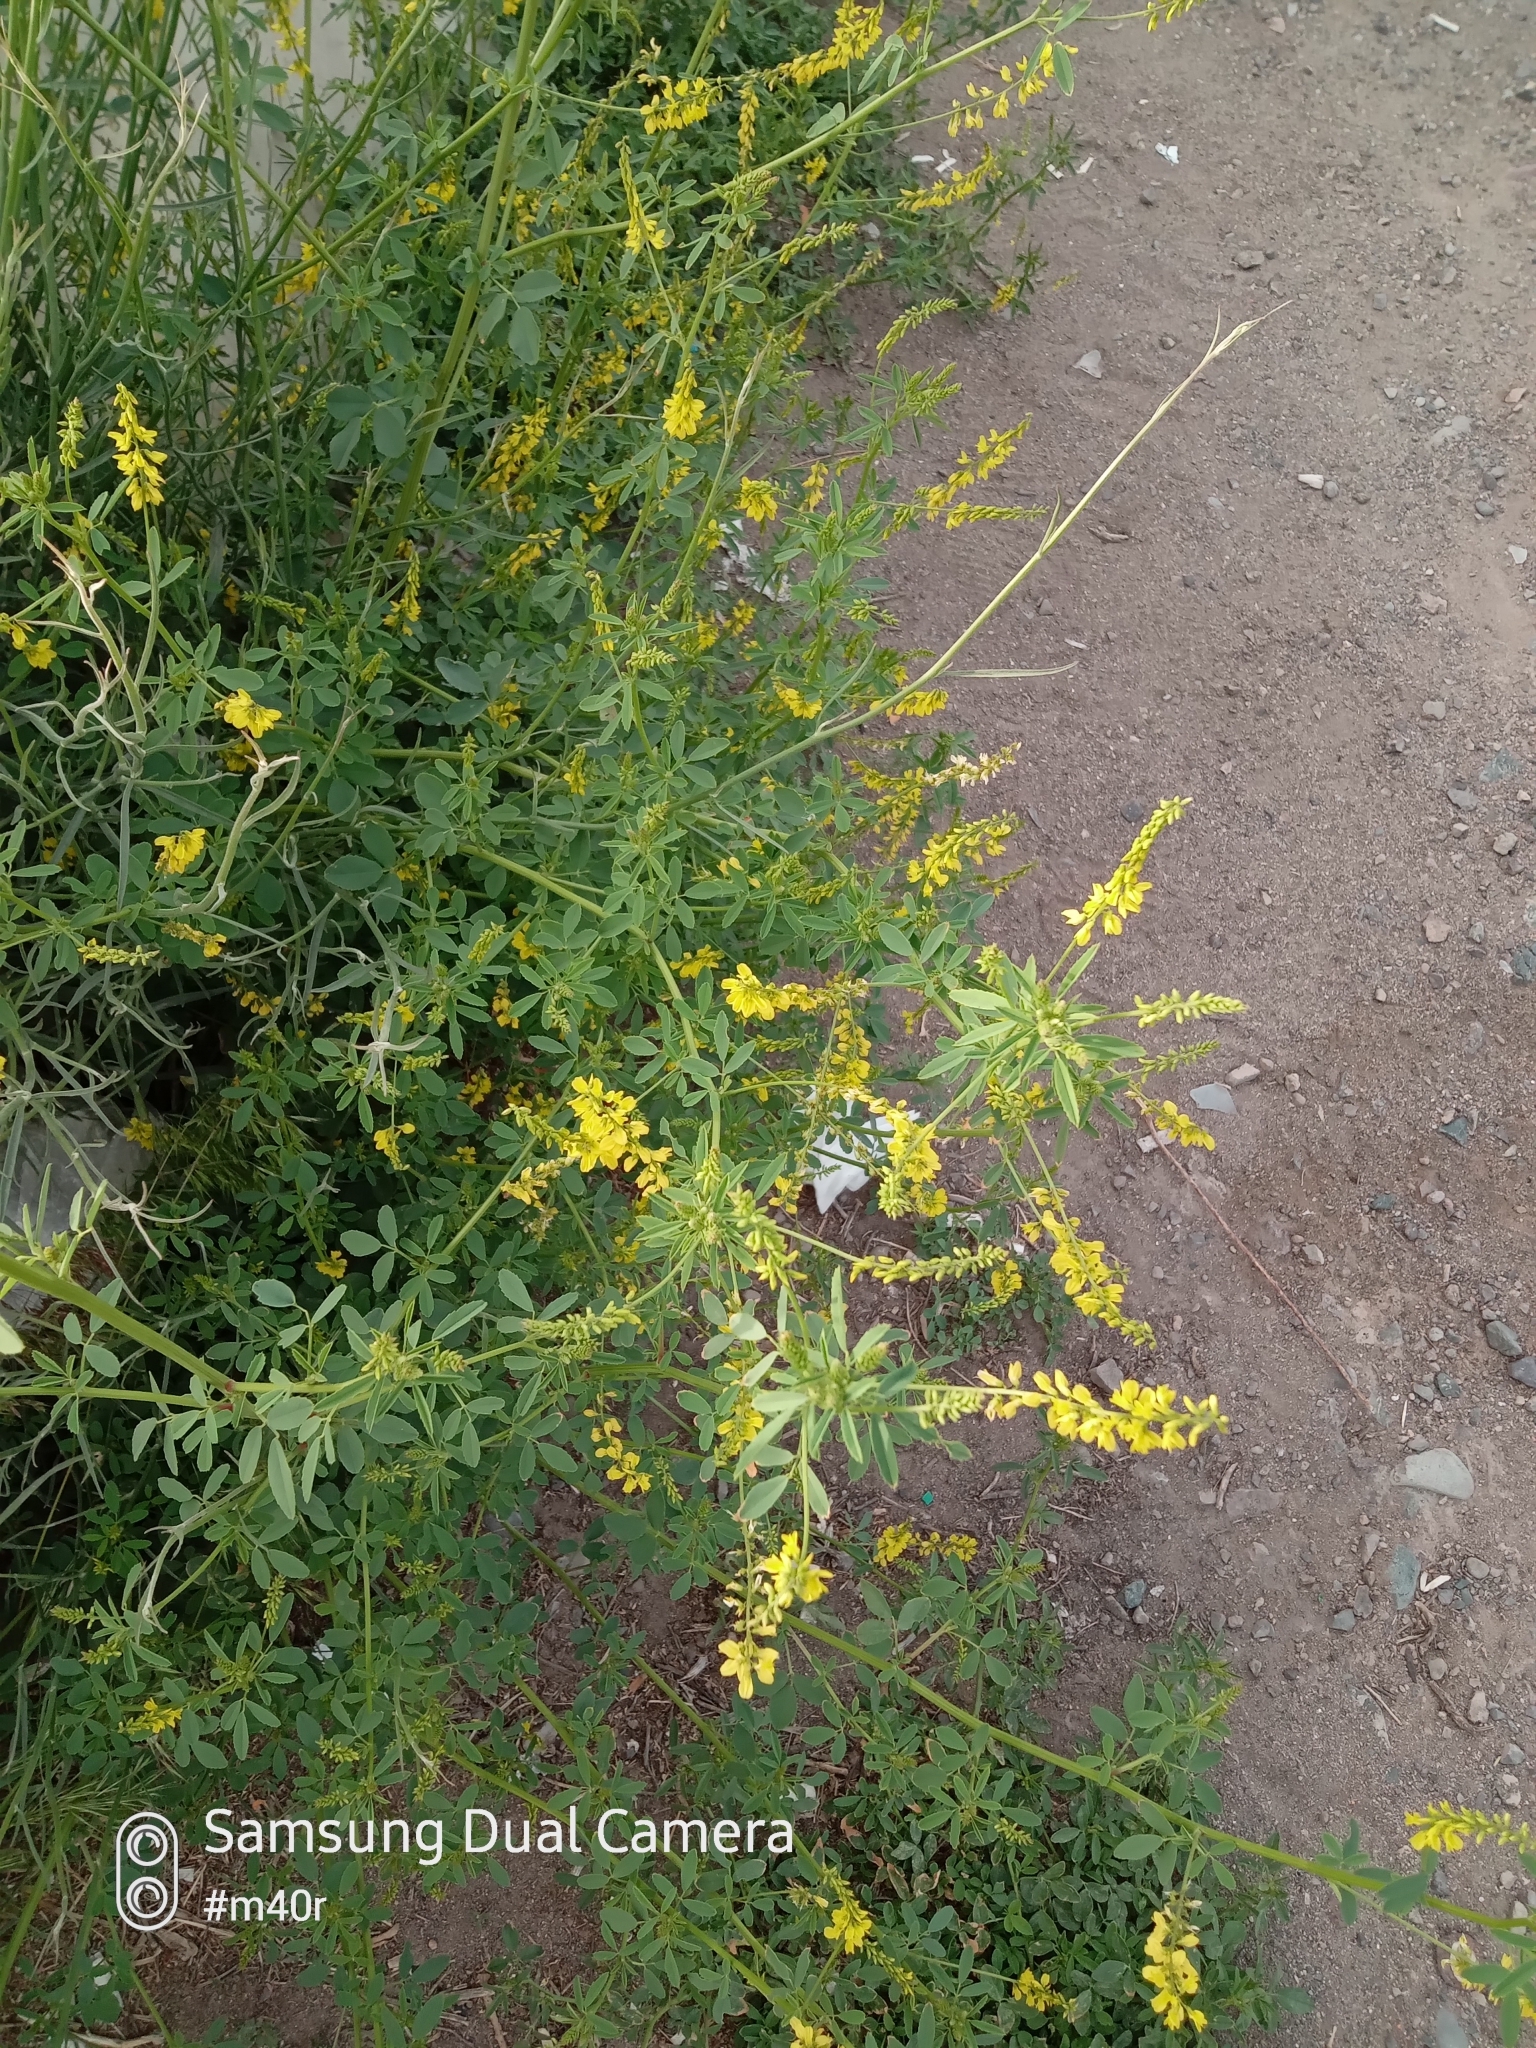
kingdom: Plantae
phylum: Tracheophyta
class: Magnoliopsida
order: Fabales
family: Fabaceae
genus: Melilotus
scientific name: Melilotus officinalis
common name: Sweetclover
